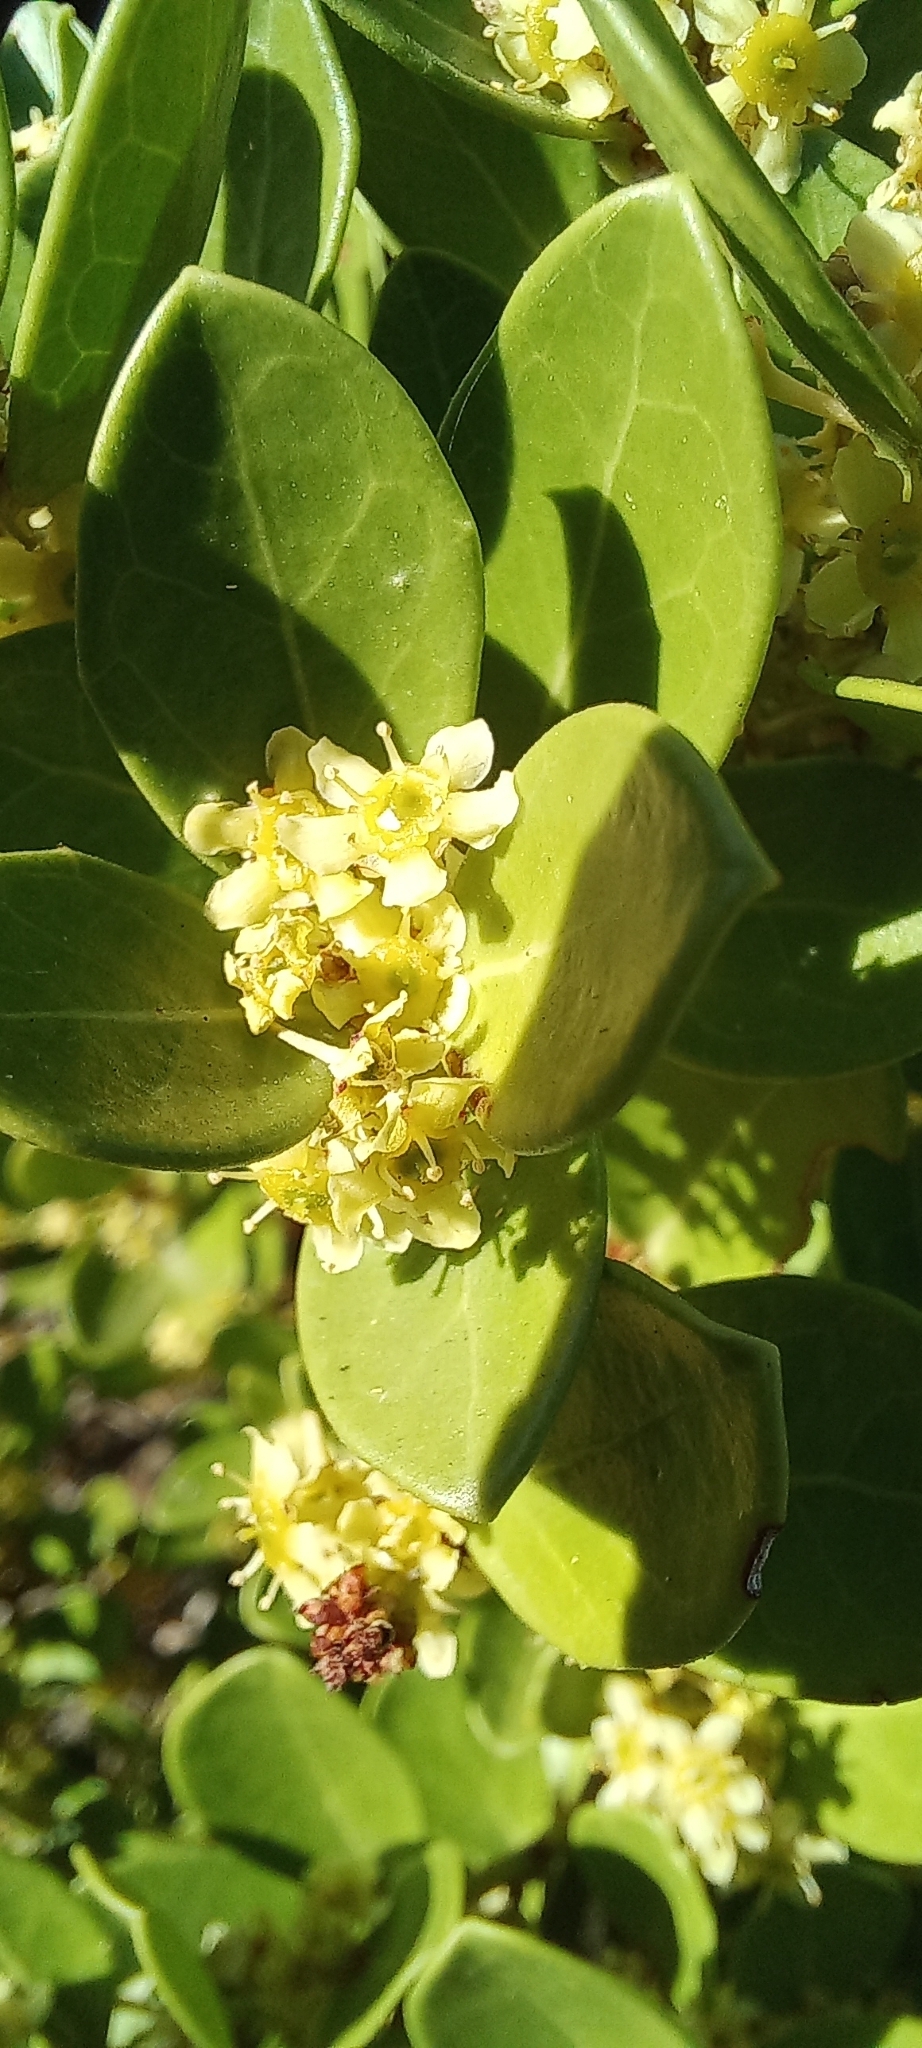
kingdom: Plantae
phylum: Tracheophyta
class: Magnoliopsida
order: Celastrales
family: Celastraceae
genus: Gymnosporia
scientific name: Gymnosporia lucida
